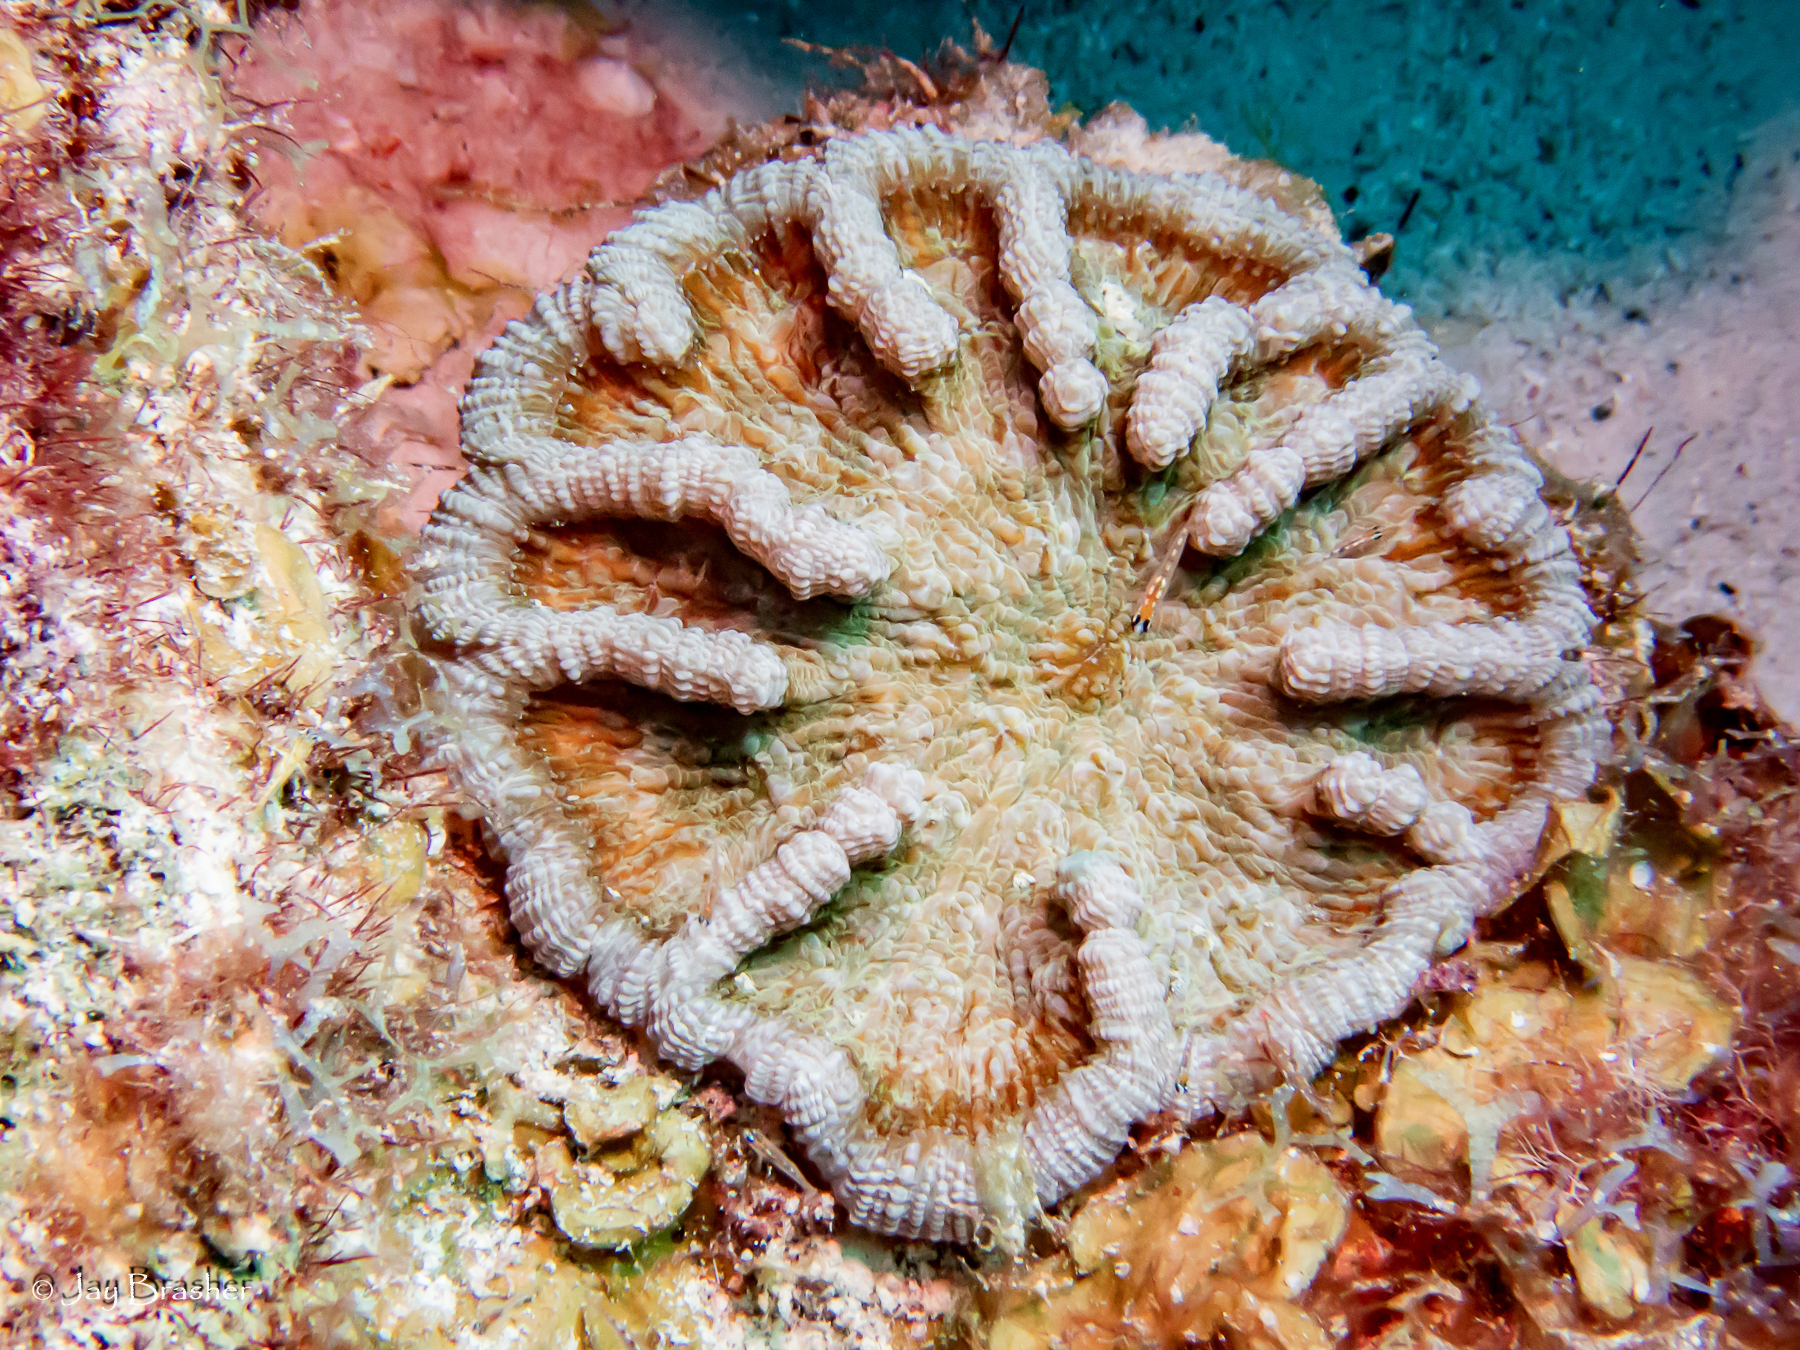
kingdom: Animalia
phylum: Cnidaria
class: Anthozoa
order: Scleractinia
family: Faviidae
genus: Mycetophyllia
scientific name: Mycetophyllia lamarckiana
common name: Ridged cactus coral
